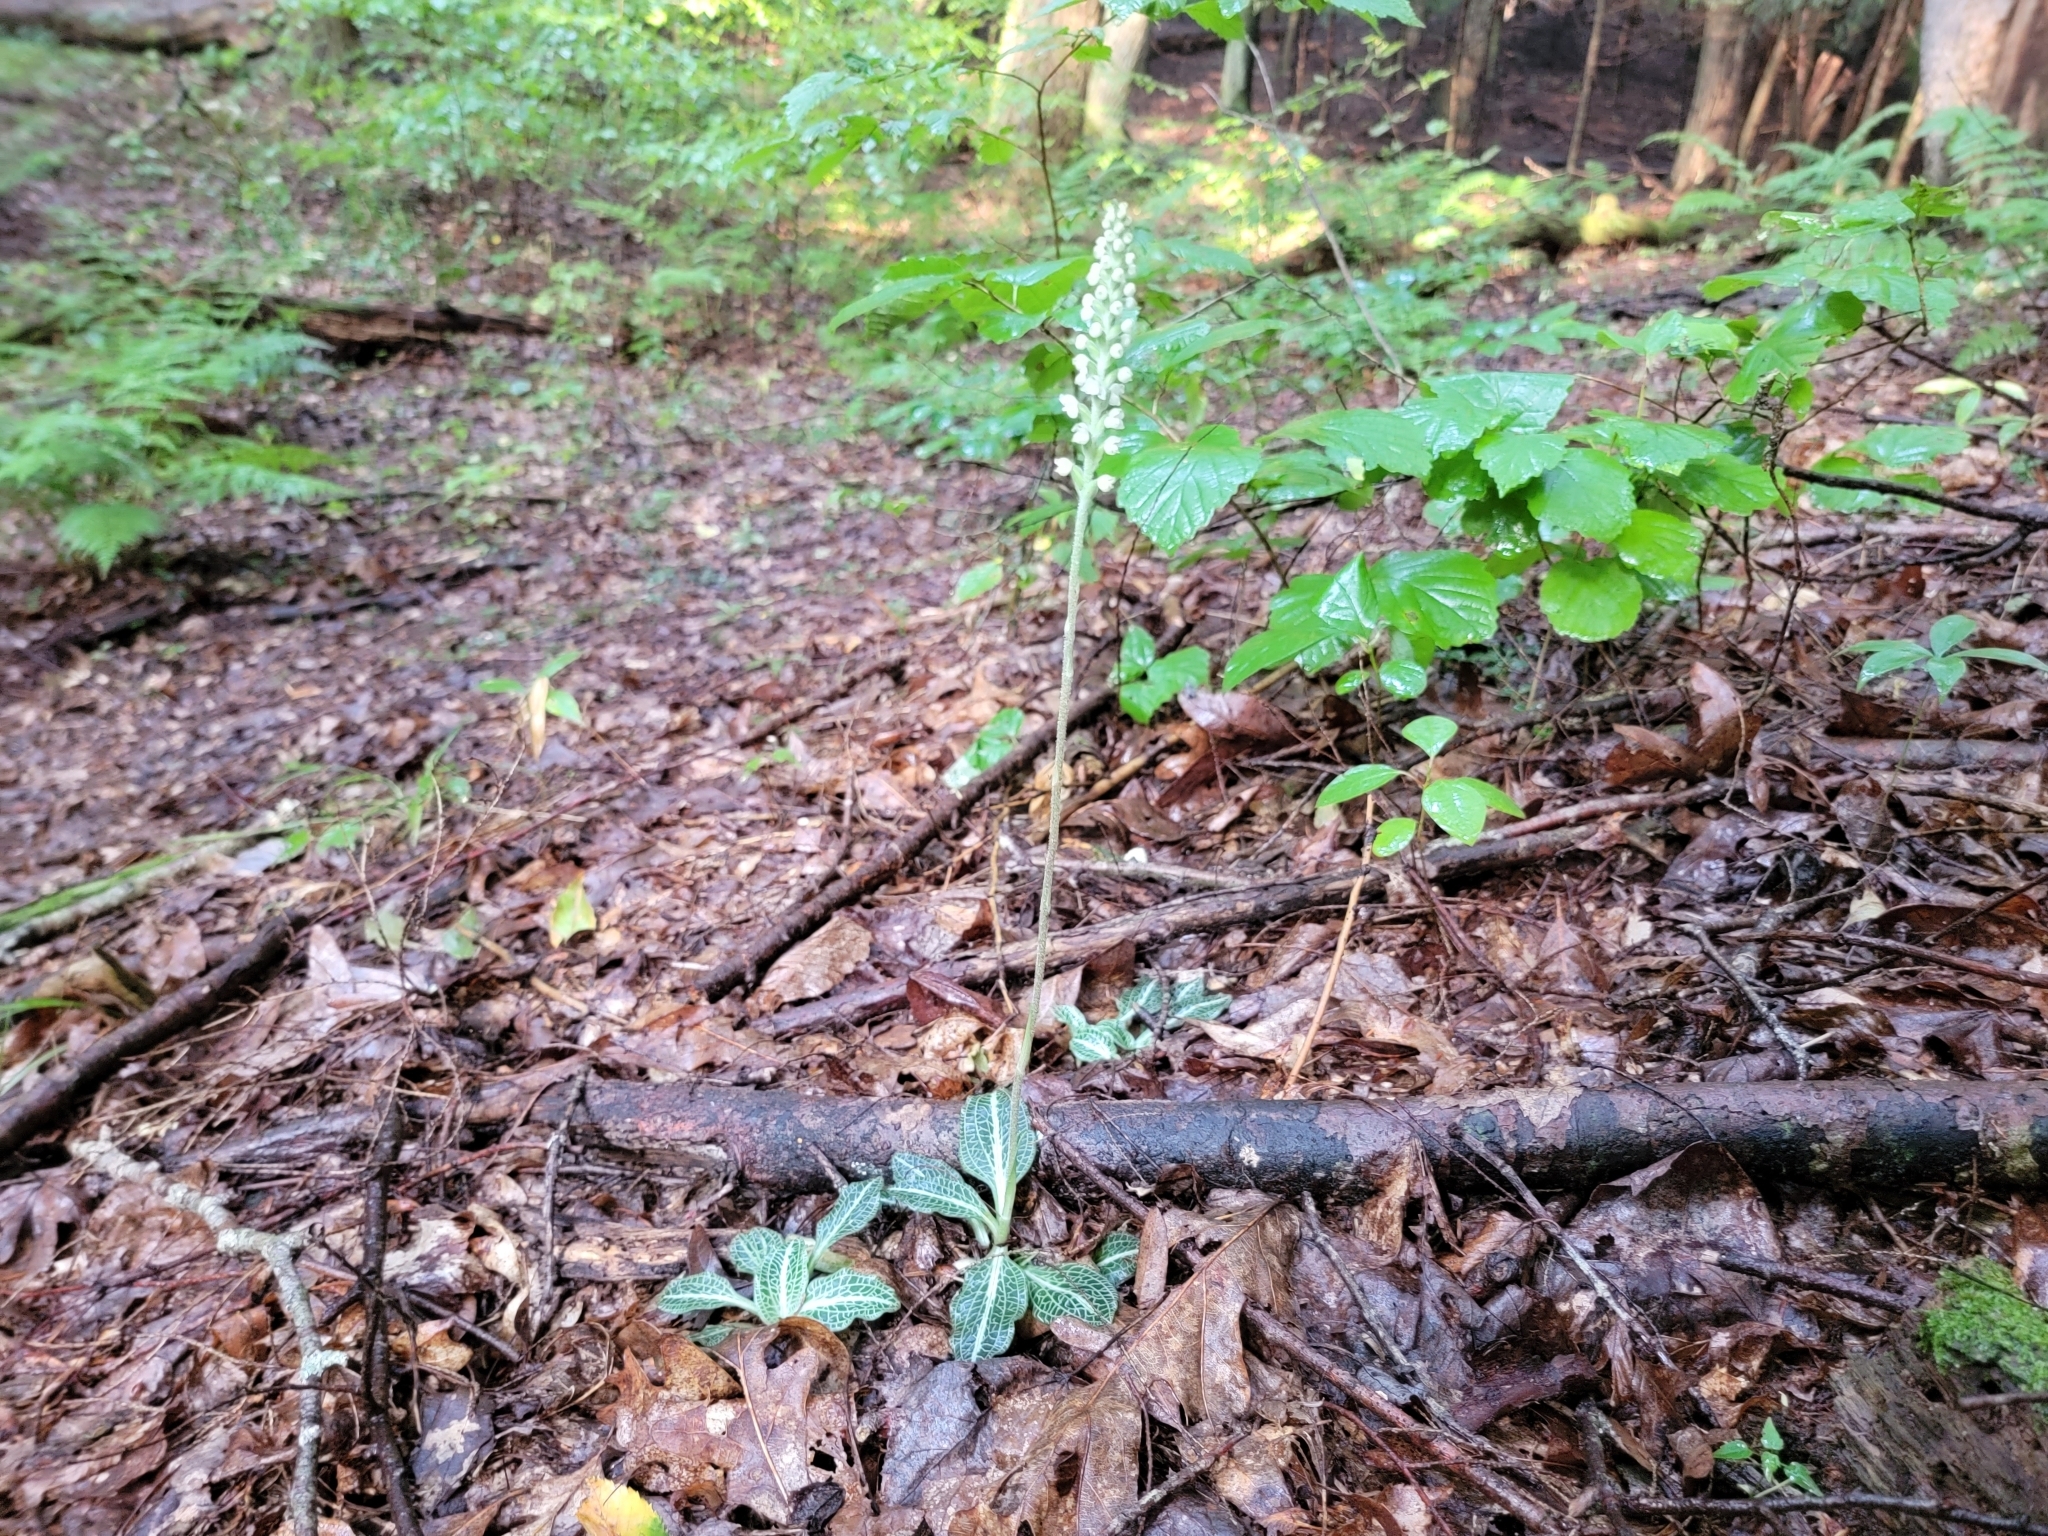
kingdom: Plantae
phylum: Tracheophyta
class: Liliopsida
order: Asparagales
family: Orchidaceae
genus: Goodyera
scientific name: Goodyera pubescens
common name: Downy rattlesnake-plantain
